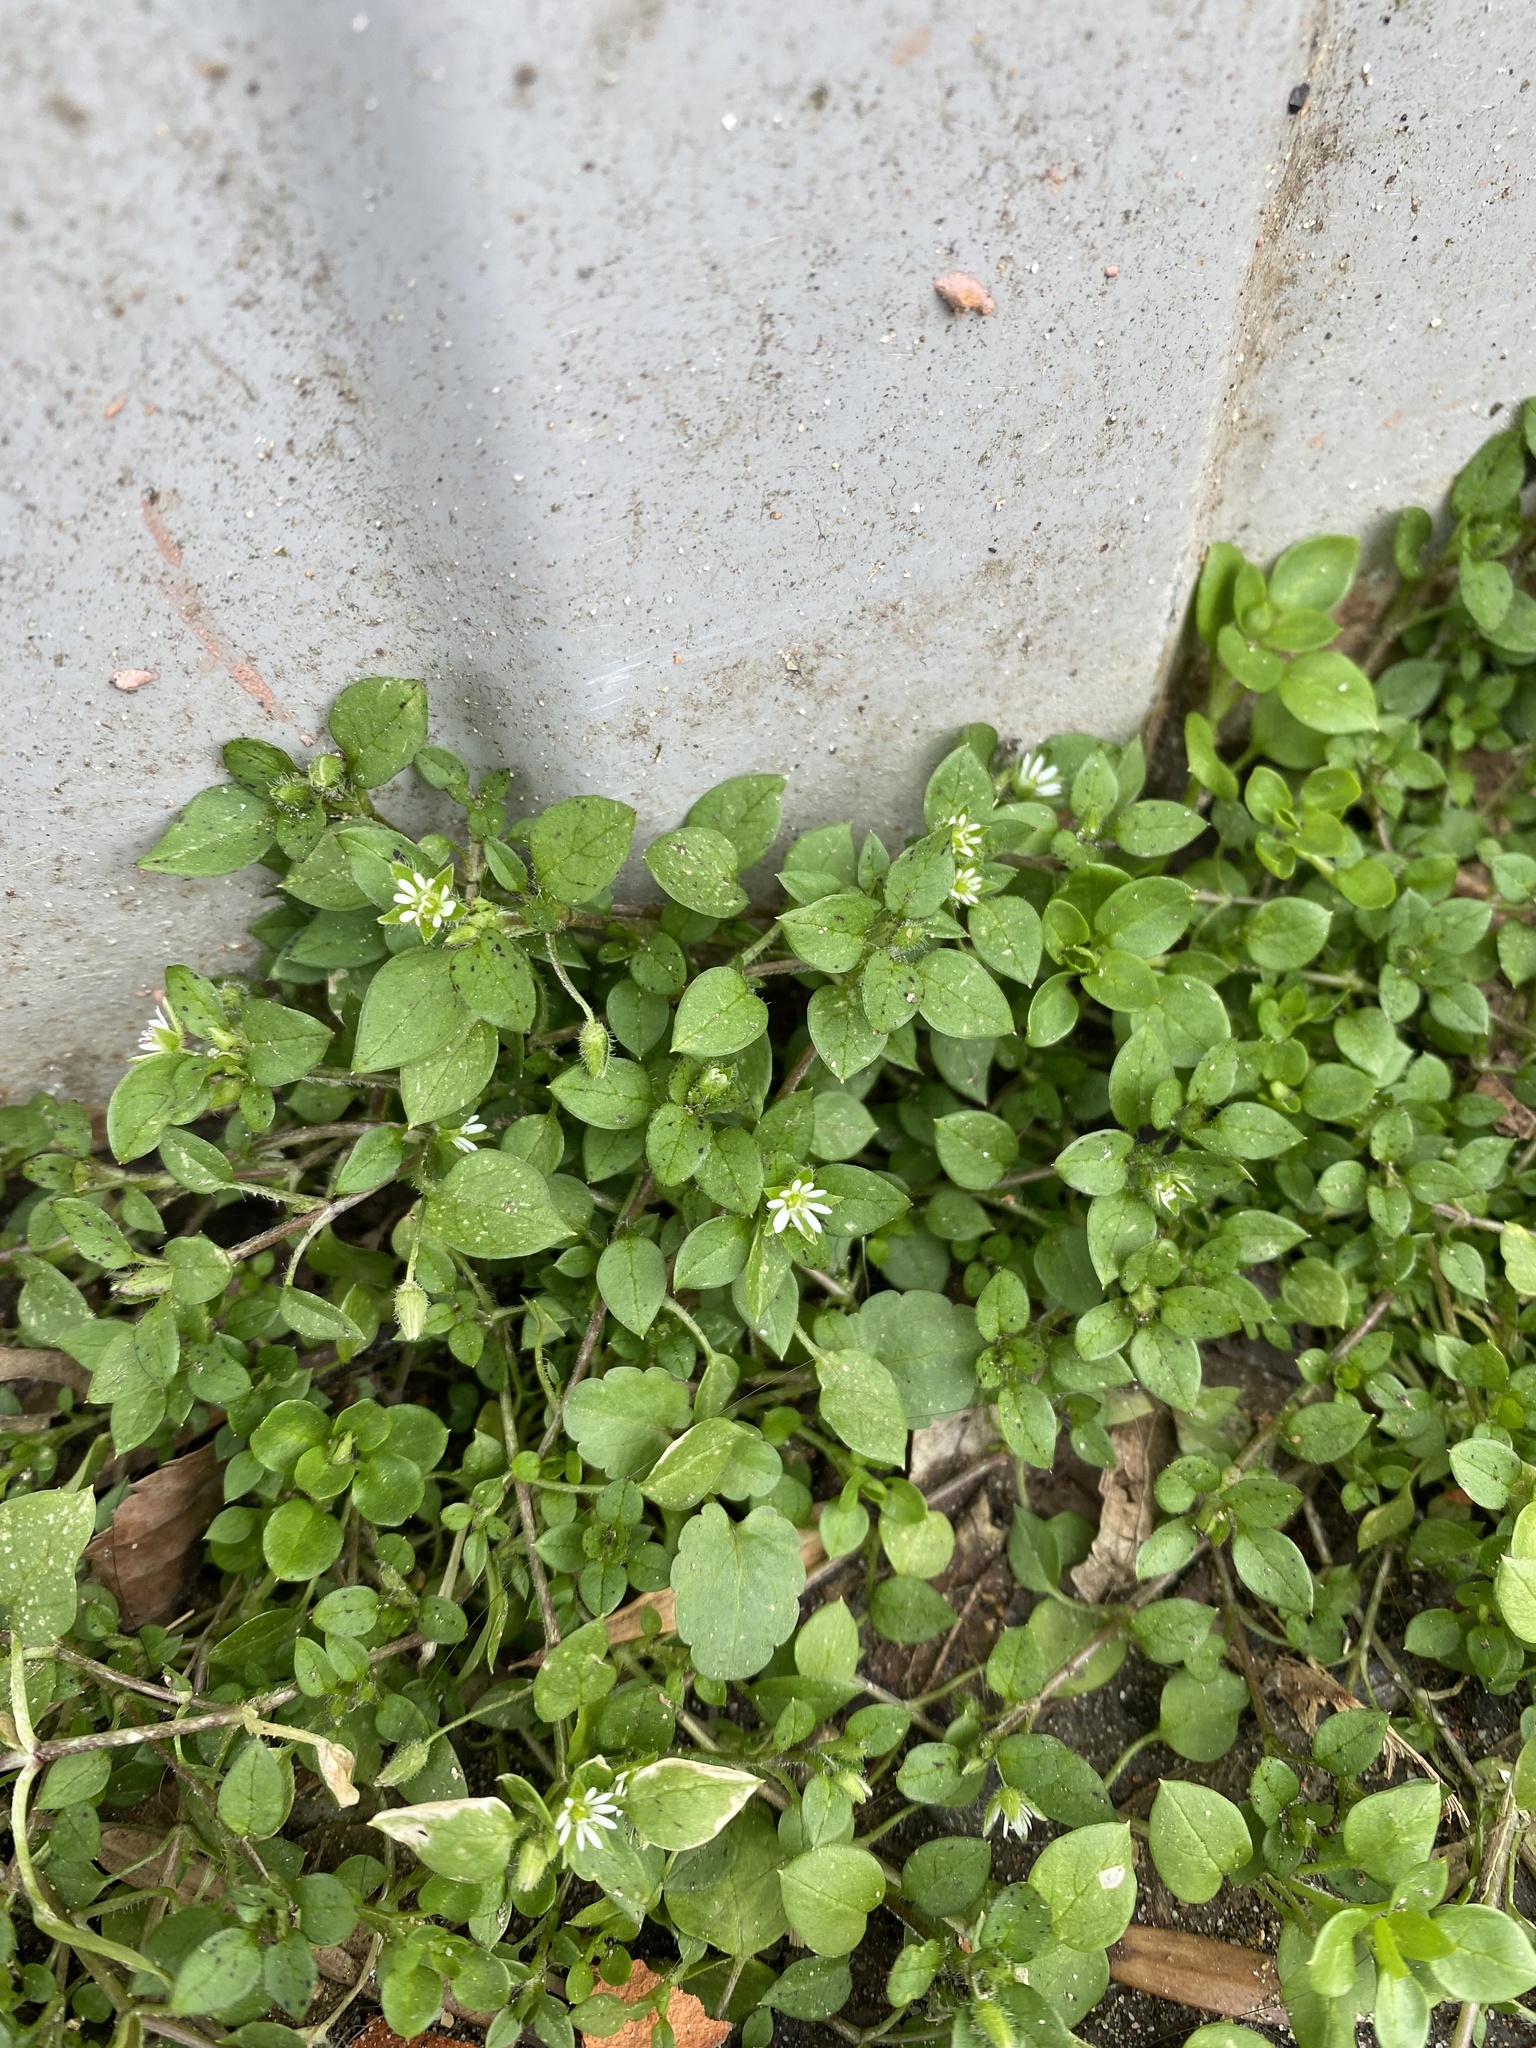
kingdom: Plantae
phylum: Tracheophyta
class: Magnoliopsida
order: Caryophyllales
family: Caryophyllaceae
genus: Stellaria
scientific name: Stellaria media
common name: Common chickweed
